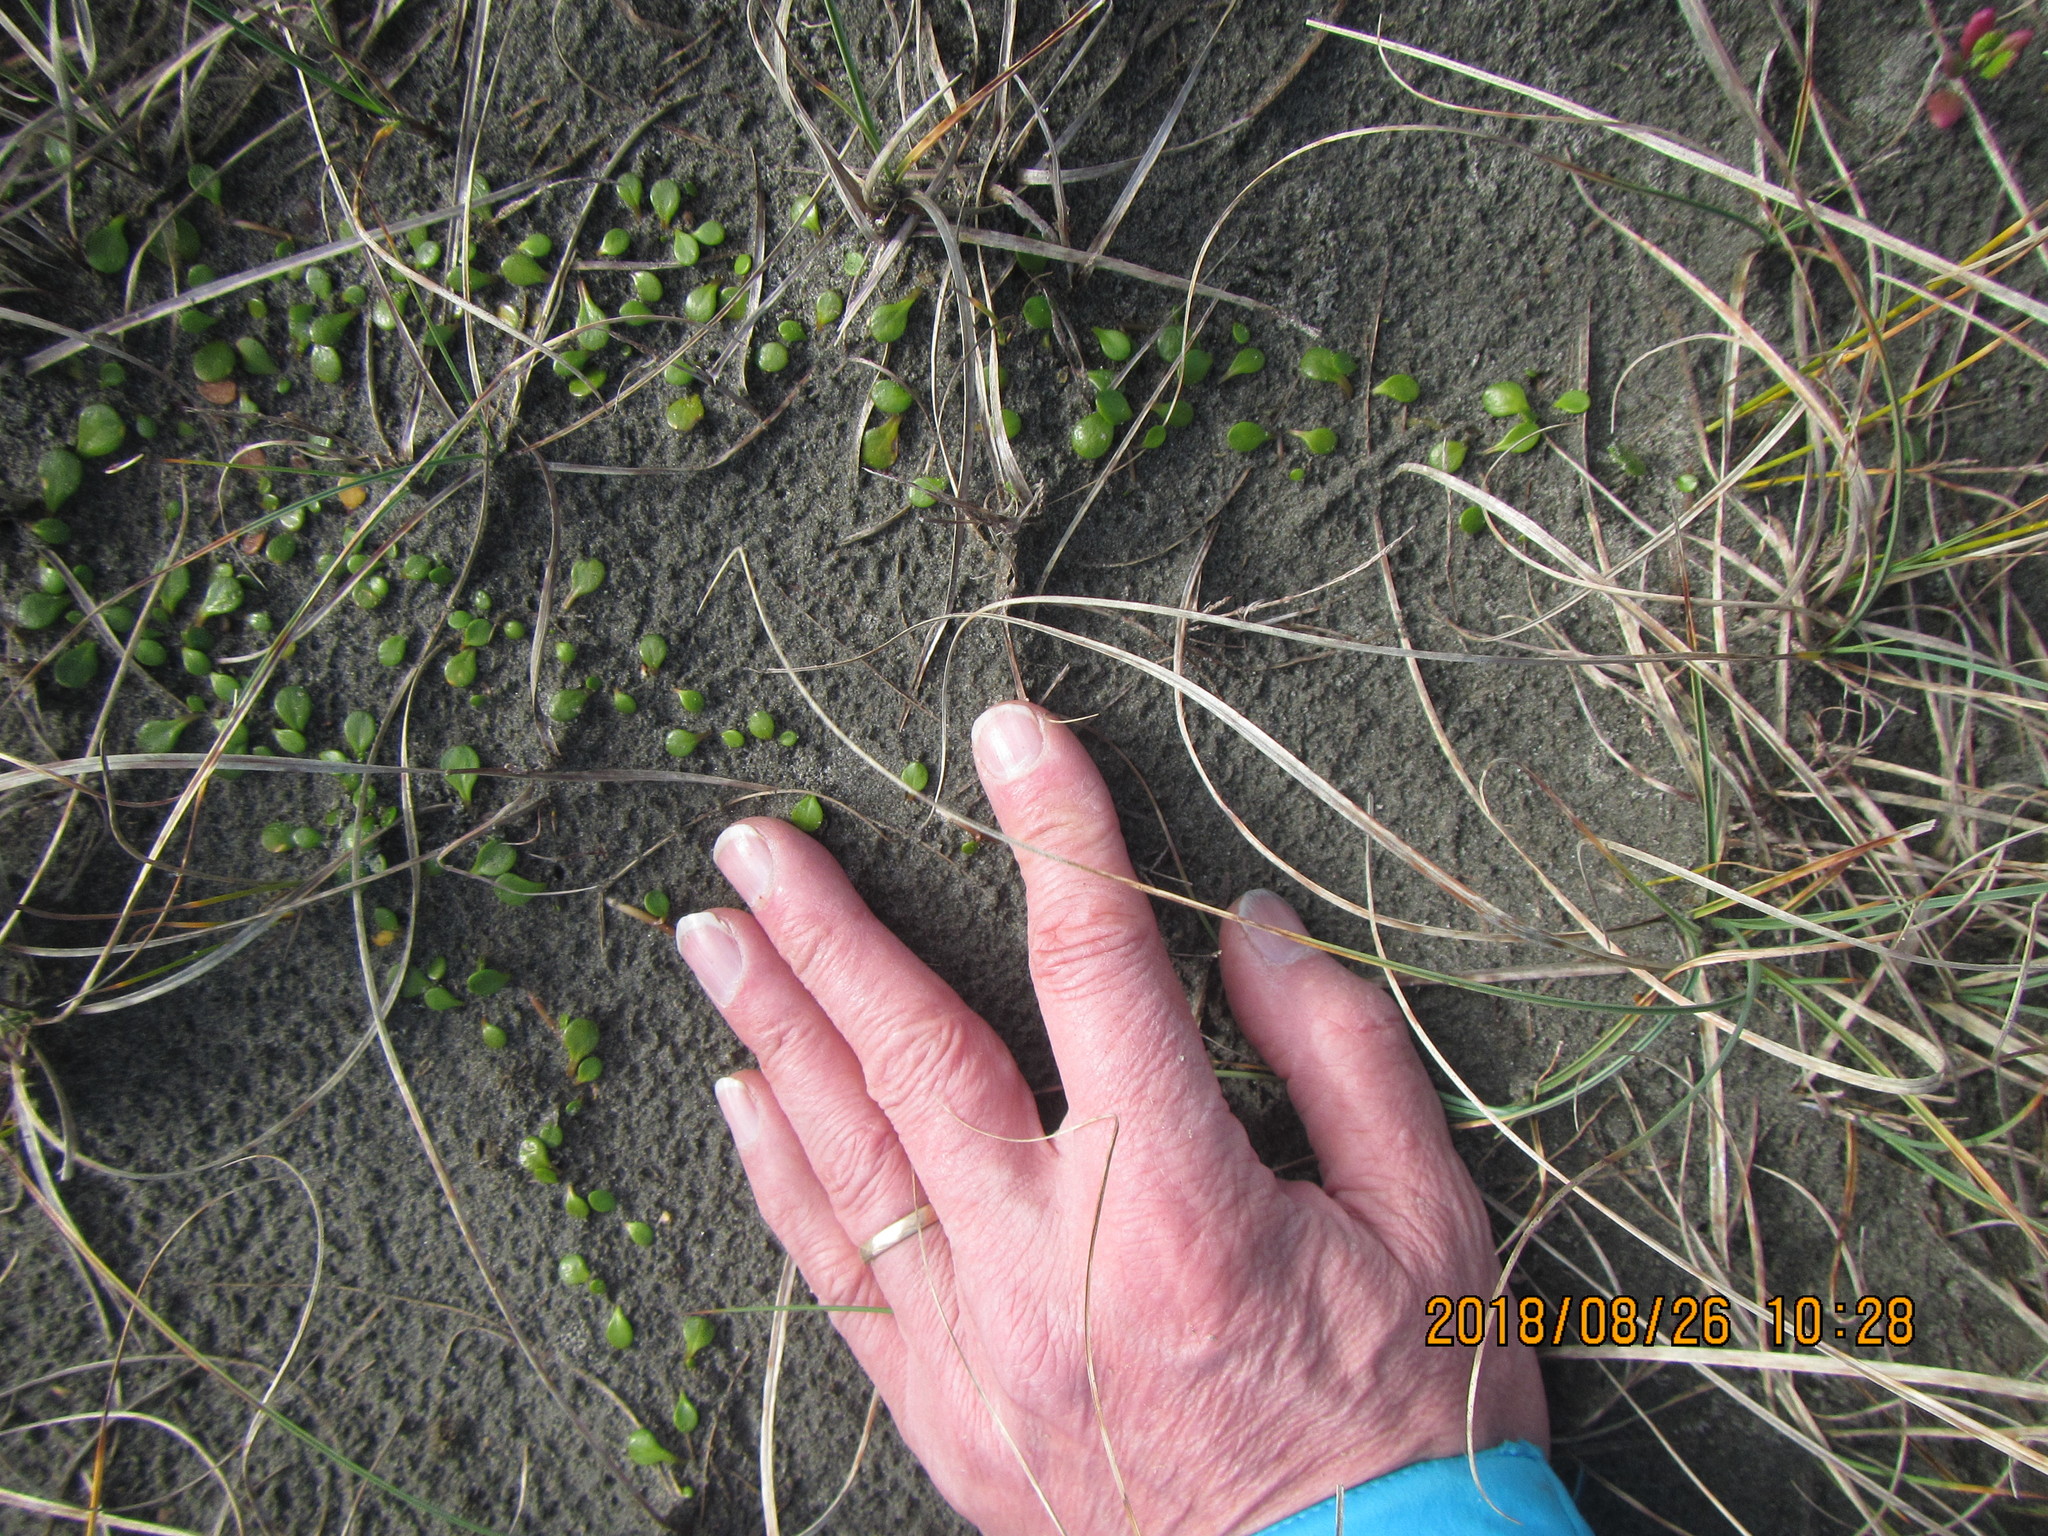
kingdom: Plantae
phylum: Tracheophyta
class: Magnoliopsida
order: Asterales
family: Goodeniaceae
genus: Goodenia
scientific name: Goodenia heenanii
